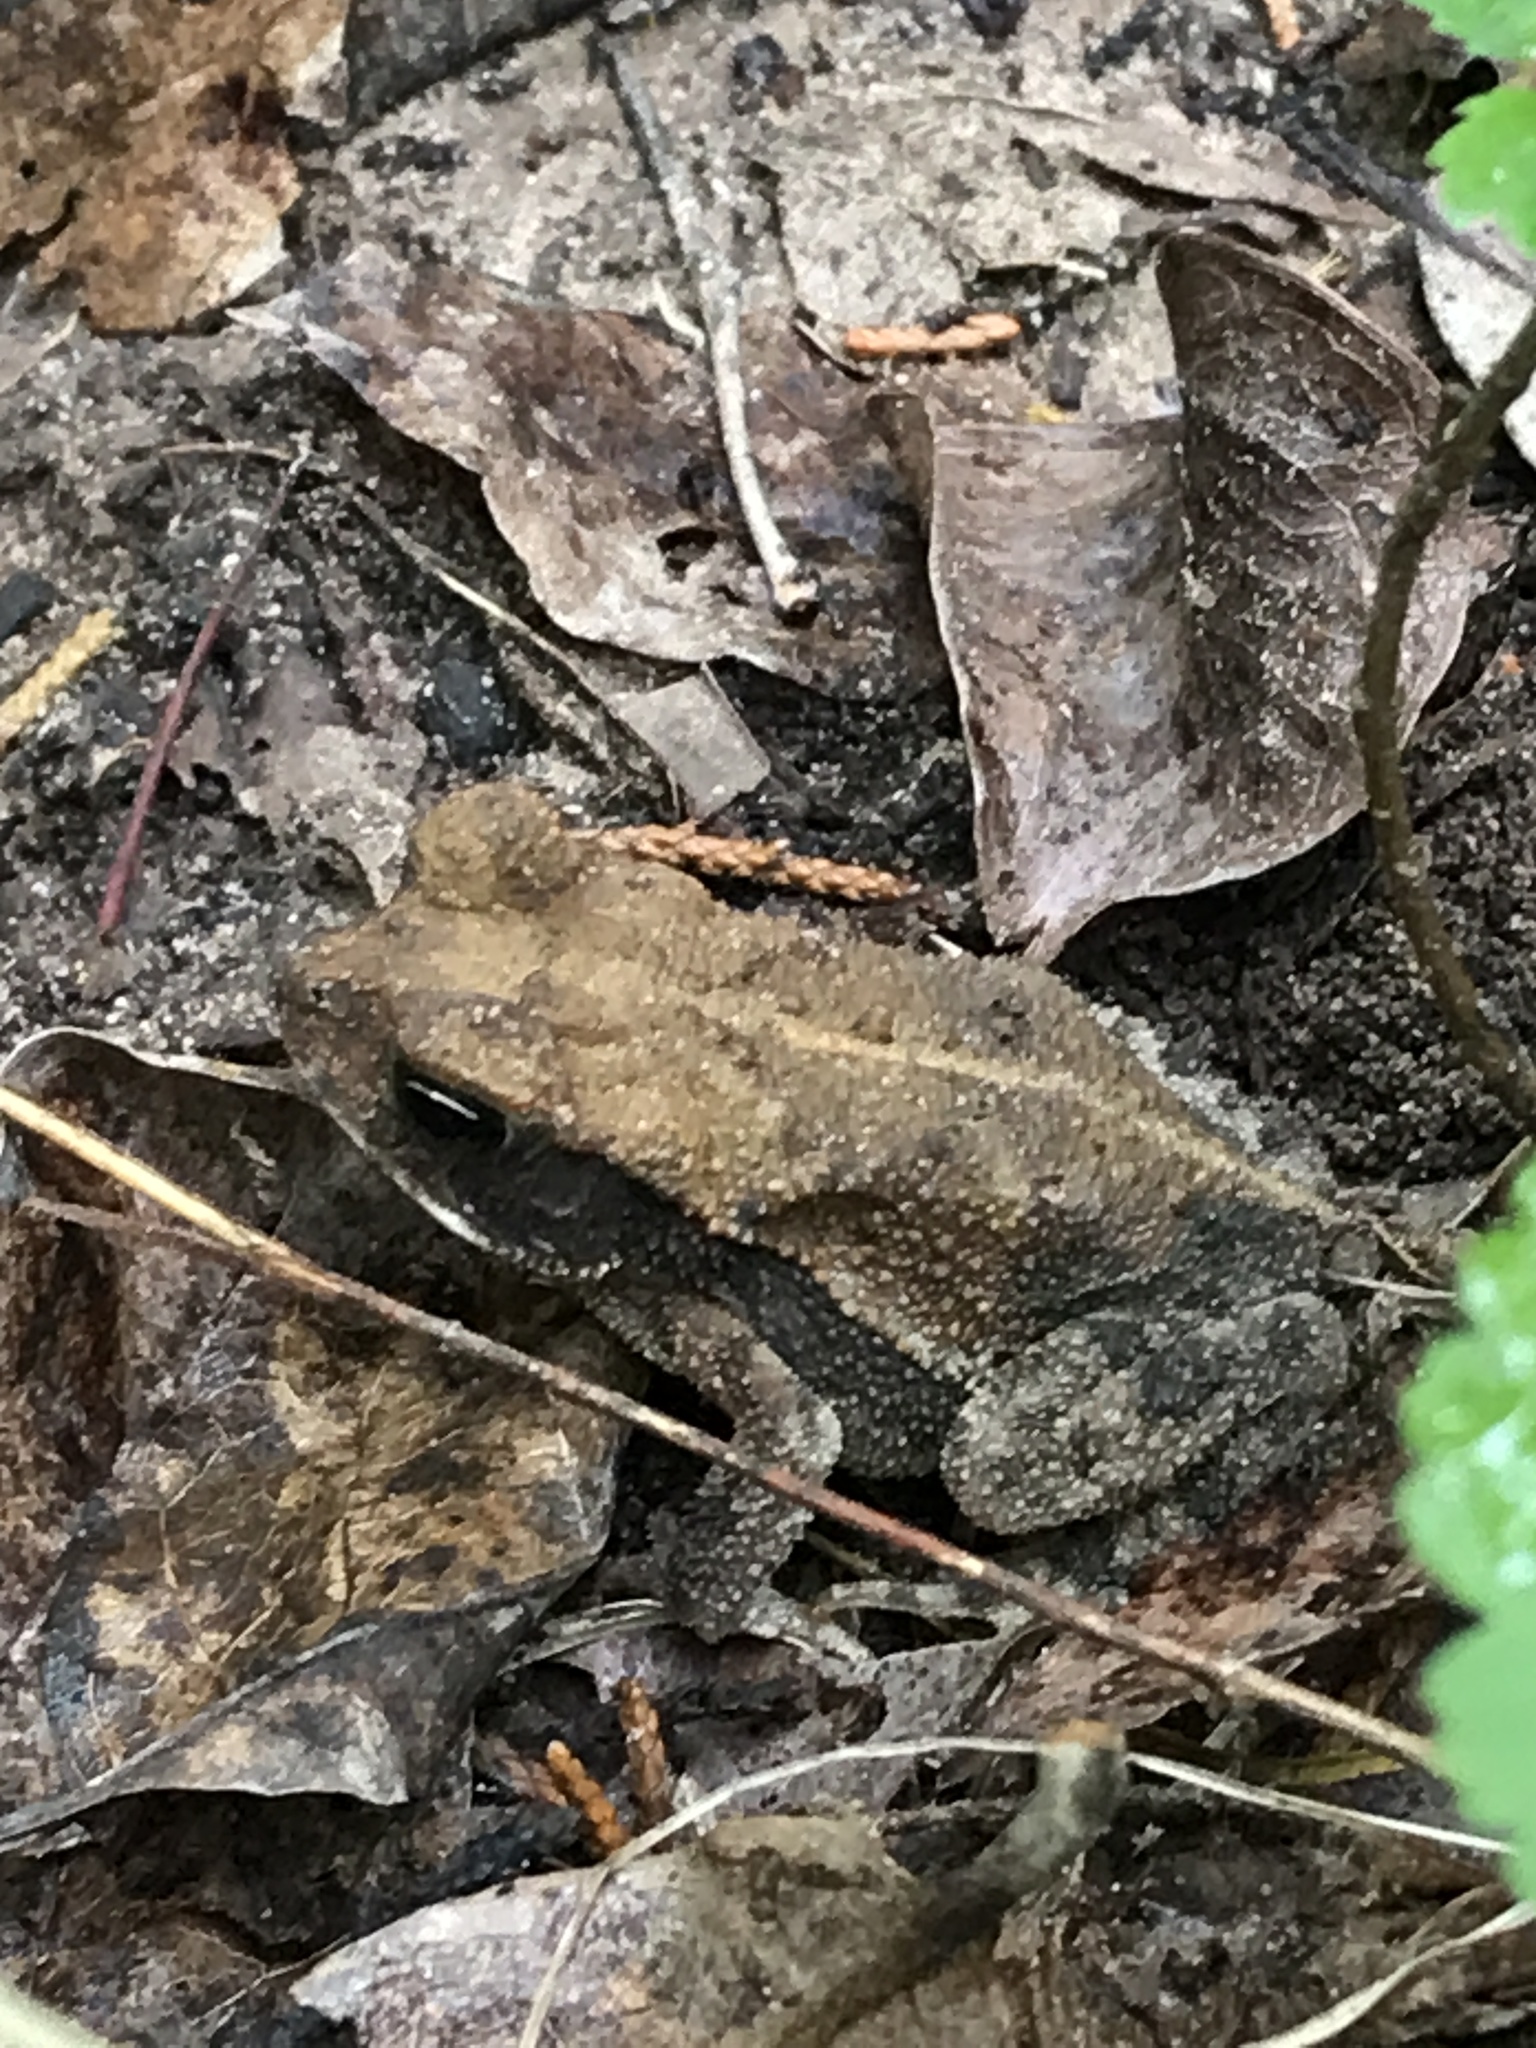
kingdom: Animalia
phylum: Chordata
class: Amphibia
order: Anura
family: Bufonidae
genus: Incilius
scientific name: Incilius nebulifer
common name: Gulf coast toad
